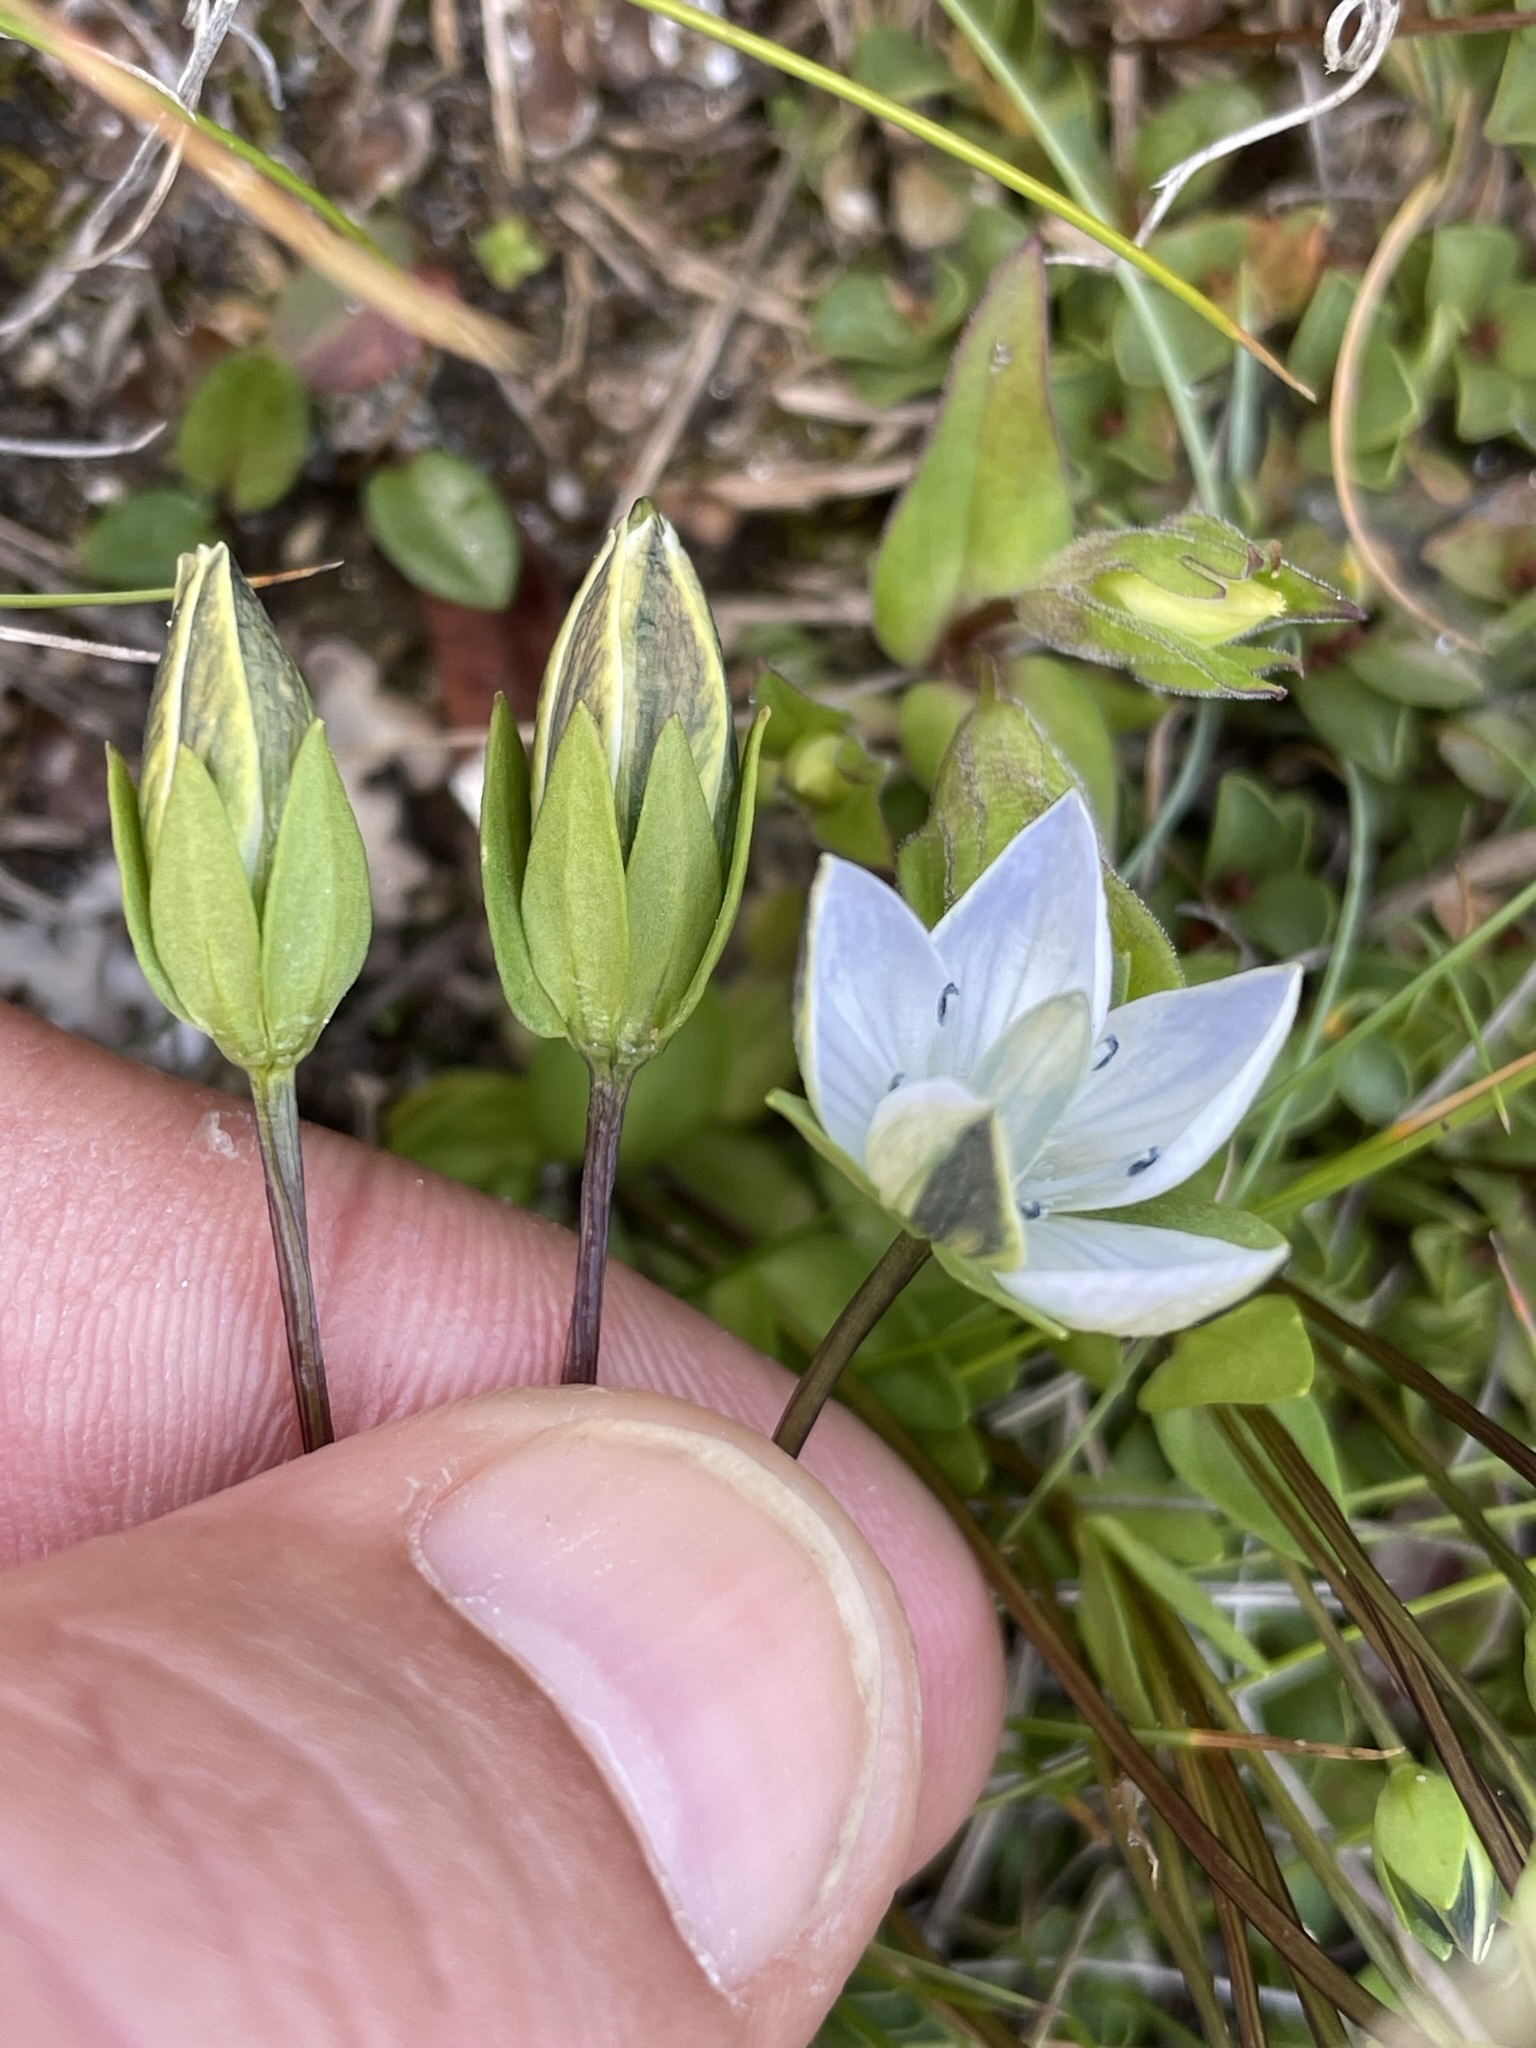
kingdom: Plantae
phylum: Tracheophyta
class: Magnoliopsida
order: Gentianales
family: Gentianaceae
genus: Lomatogonium
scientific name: Lomatogonium carinthiacum
